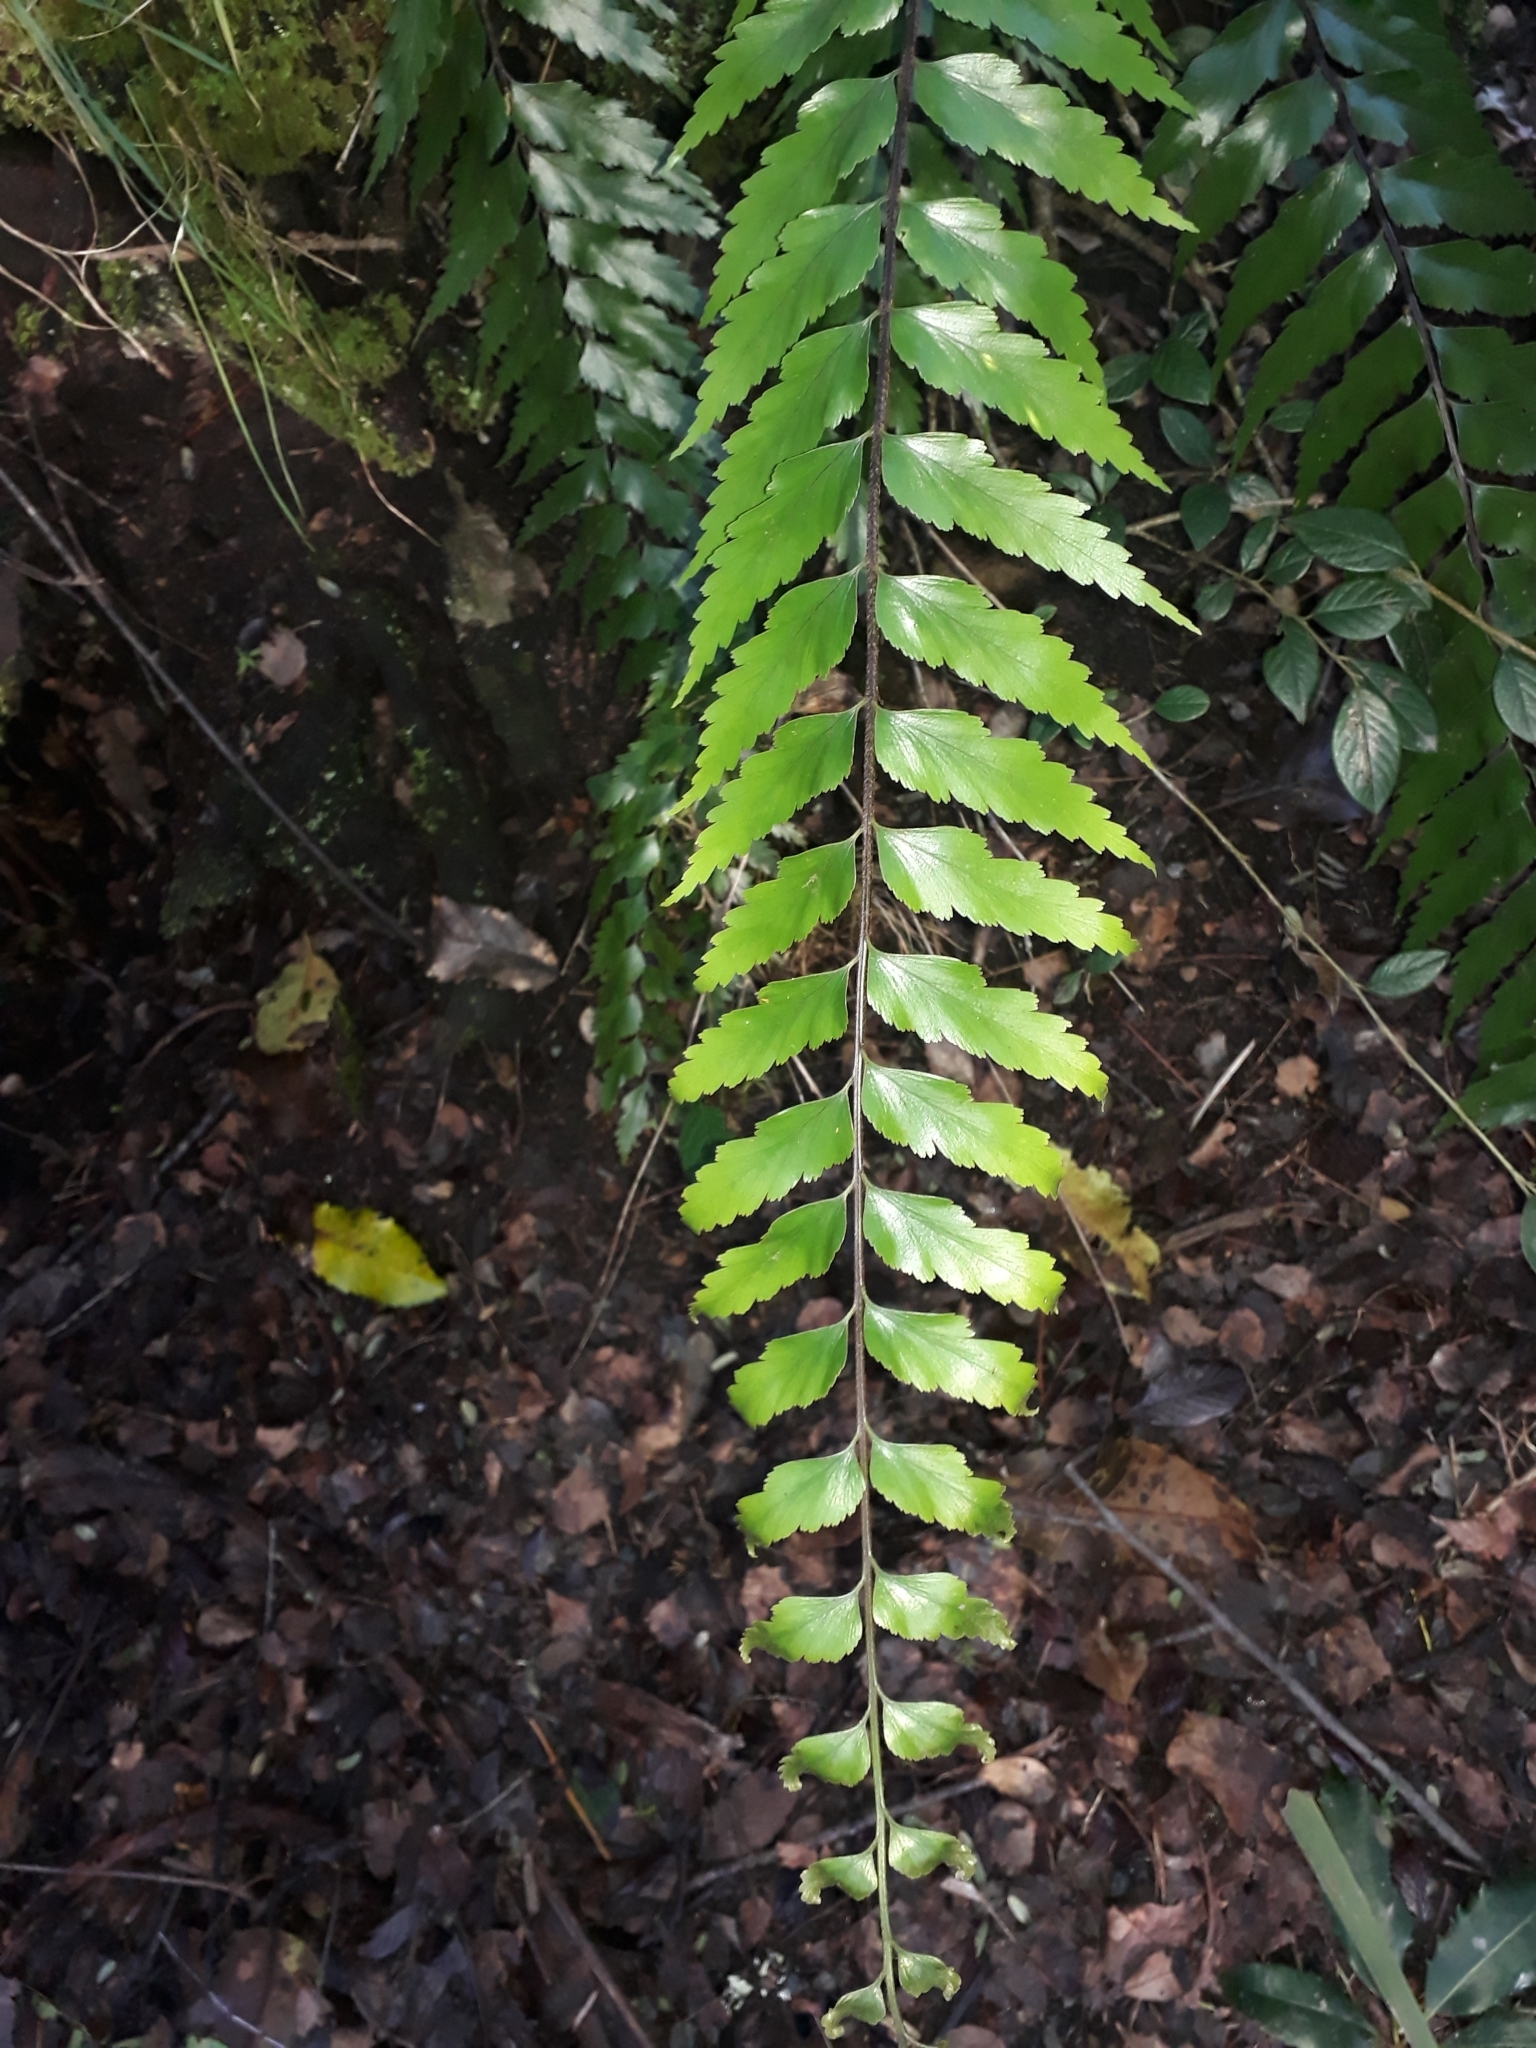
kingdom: Plantae
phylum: Tracheophyta
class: Polypodiopsida
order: Polypodiales
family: Aspleniaceae
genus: Asplenium
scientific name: Asplenium polyodon
